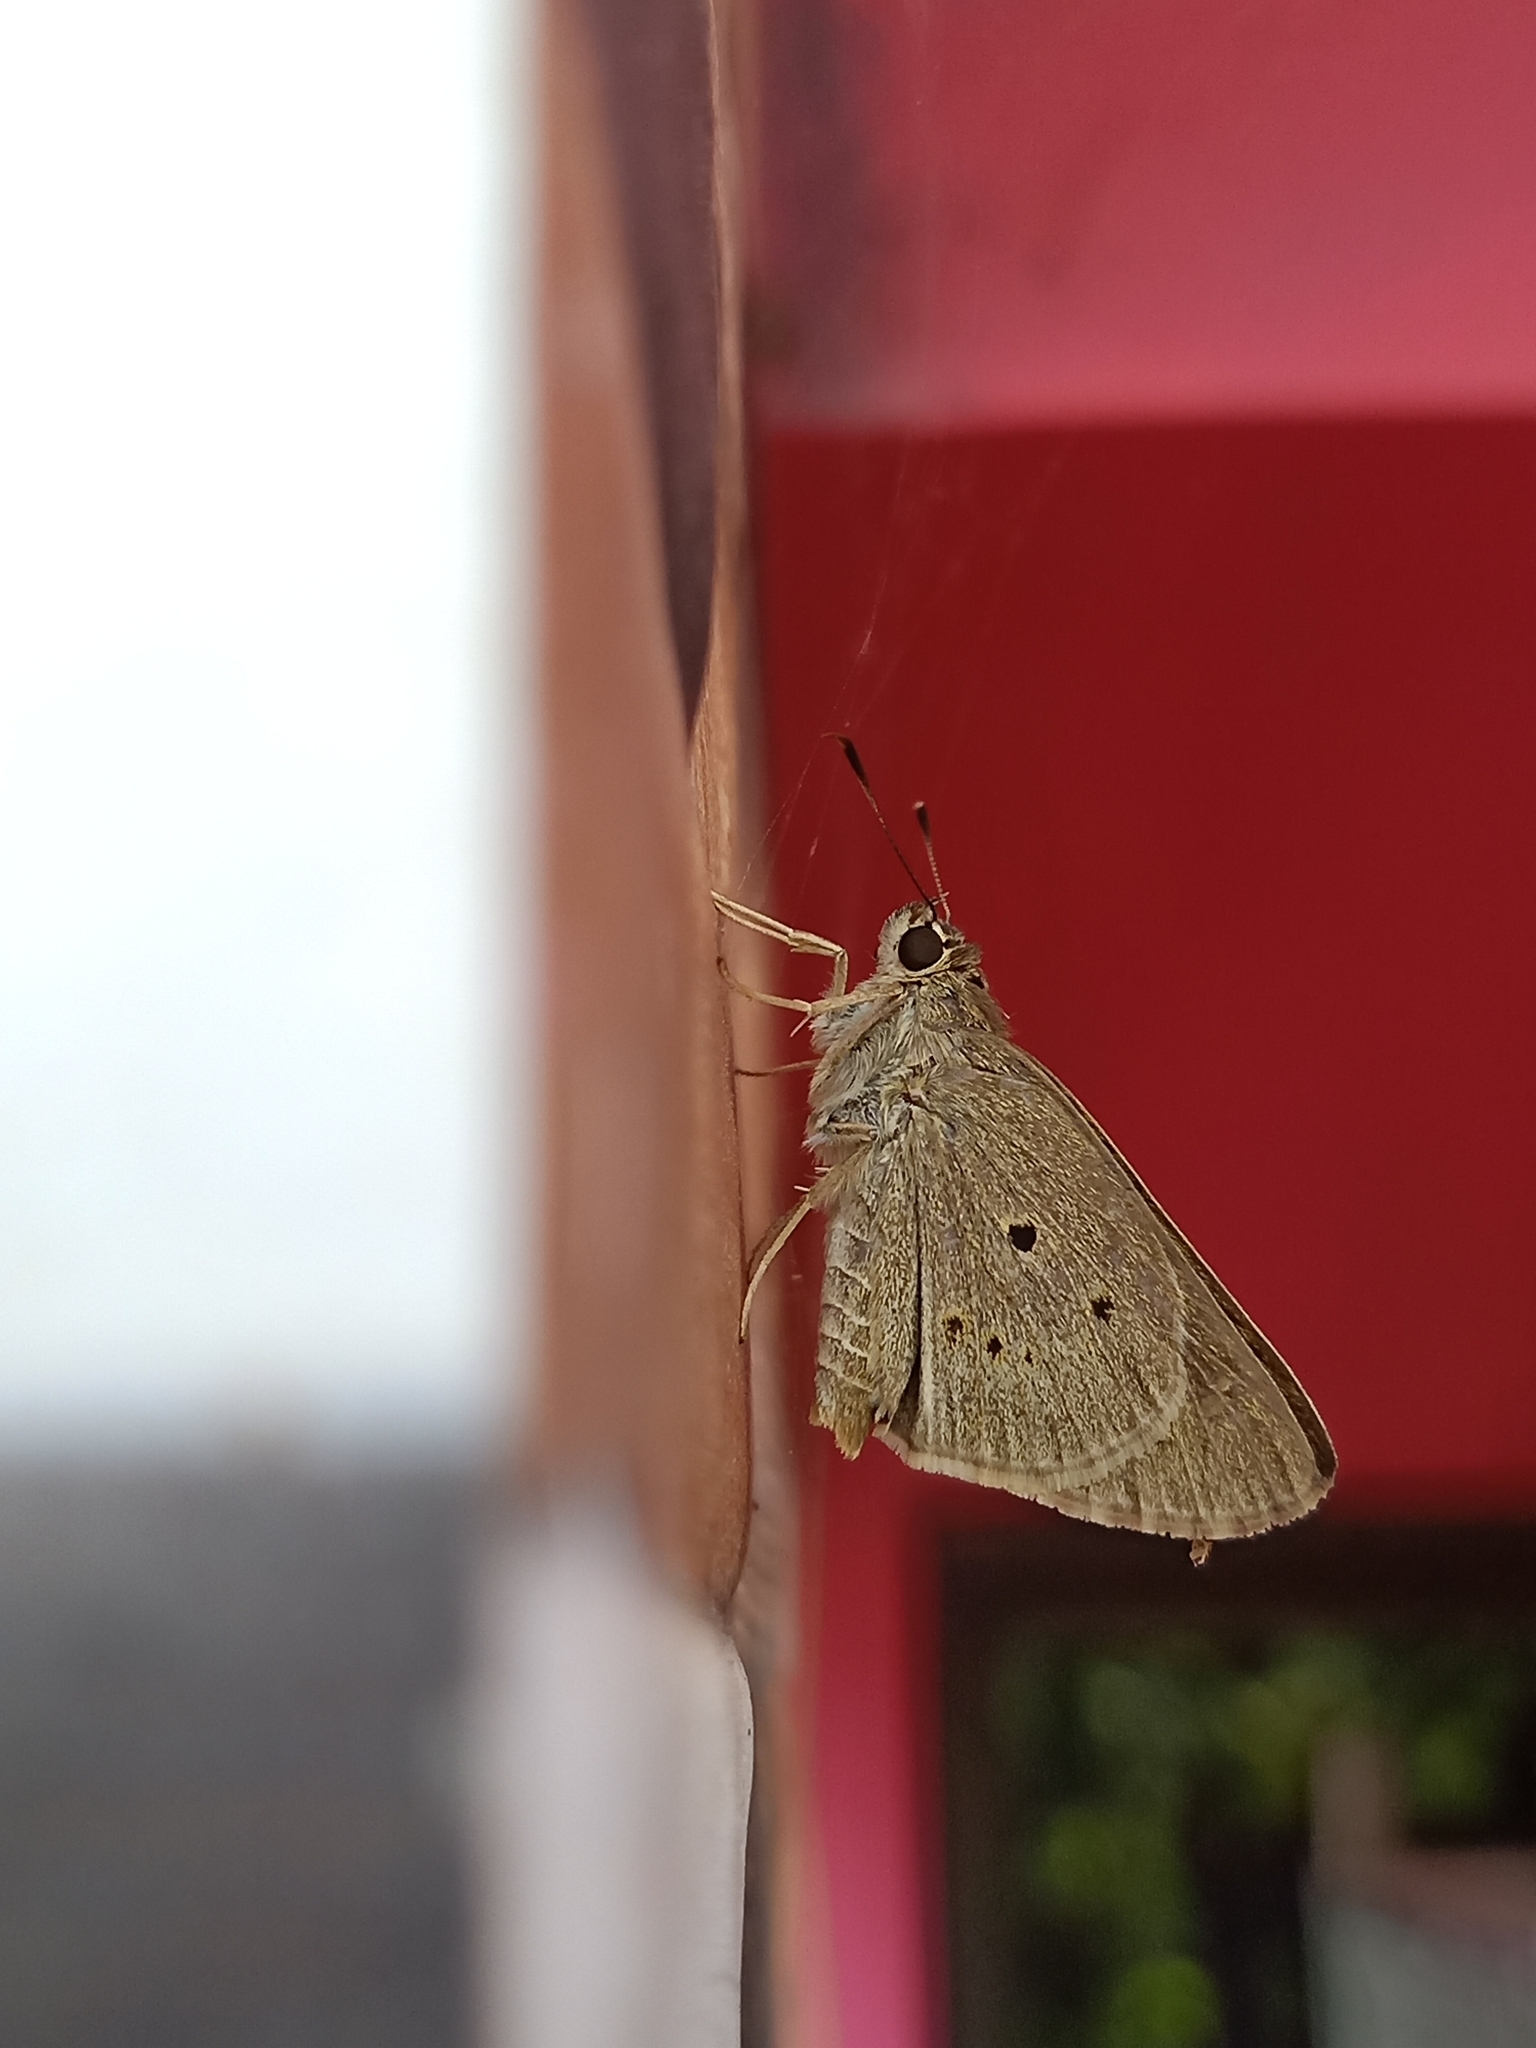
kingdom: Animalia
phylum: Arthropoda
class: Insecta
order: Lepidoptera
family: Hesperiidae
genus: Suastus
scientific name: Suastus gremius
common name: Indian palm bob
